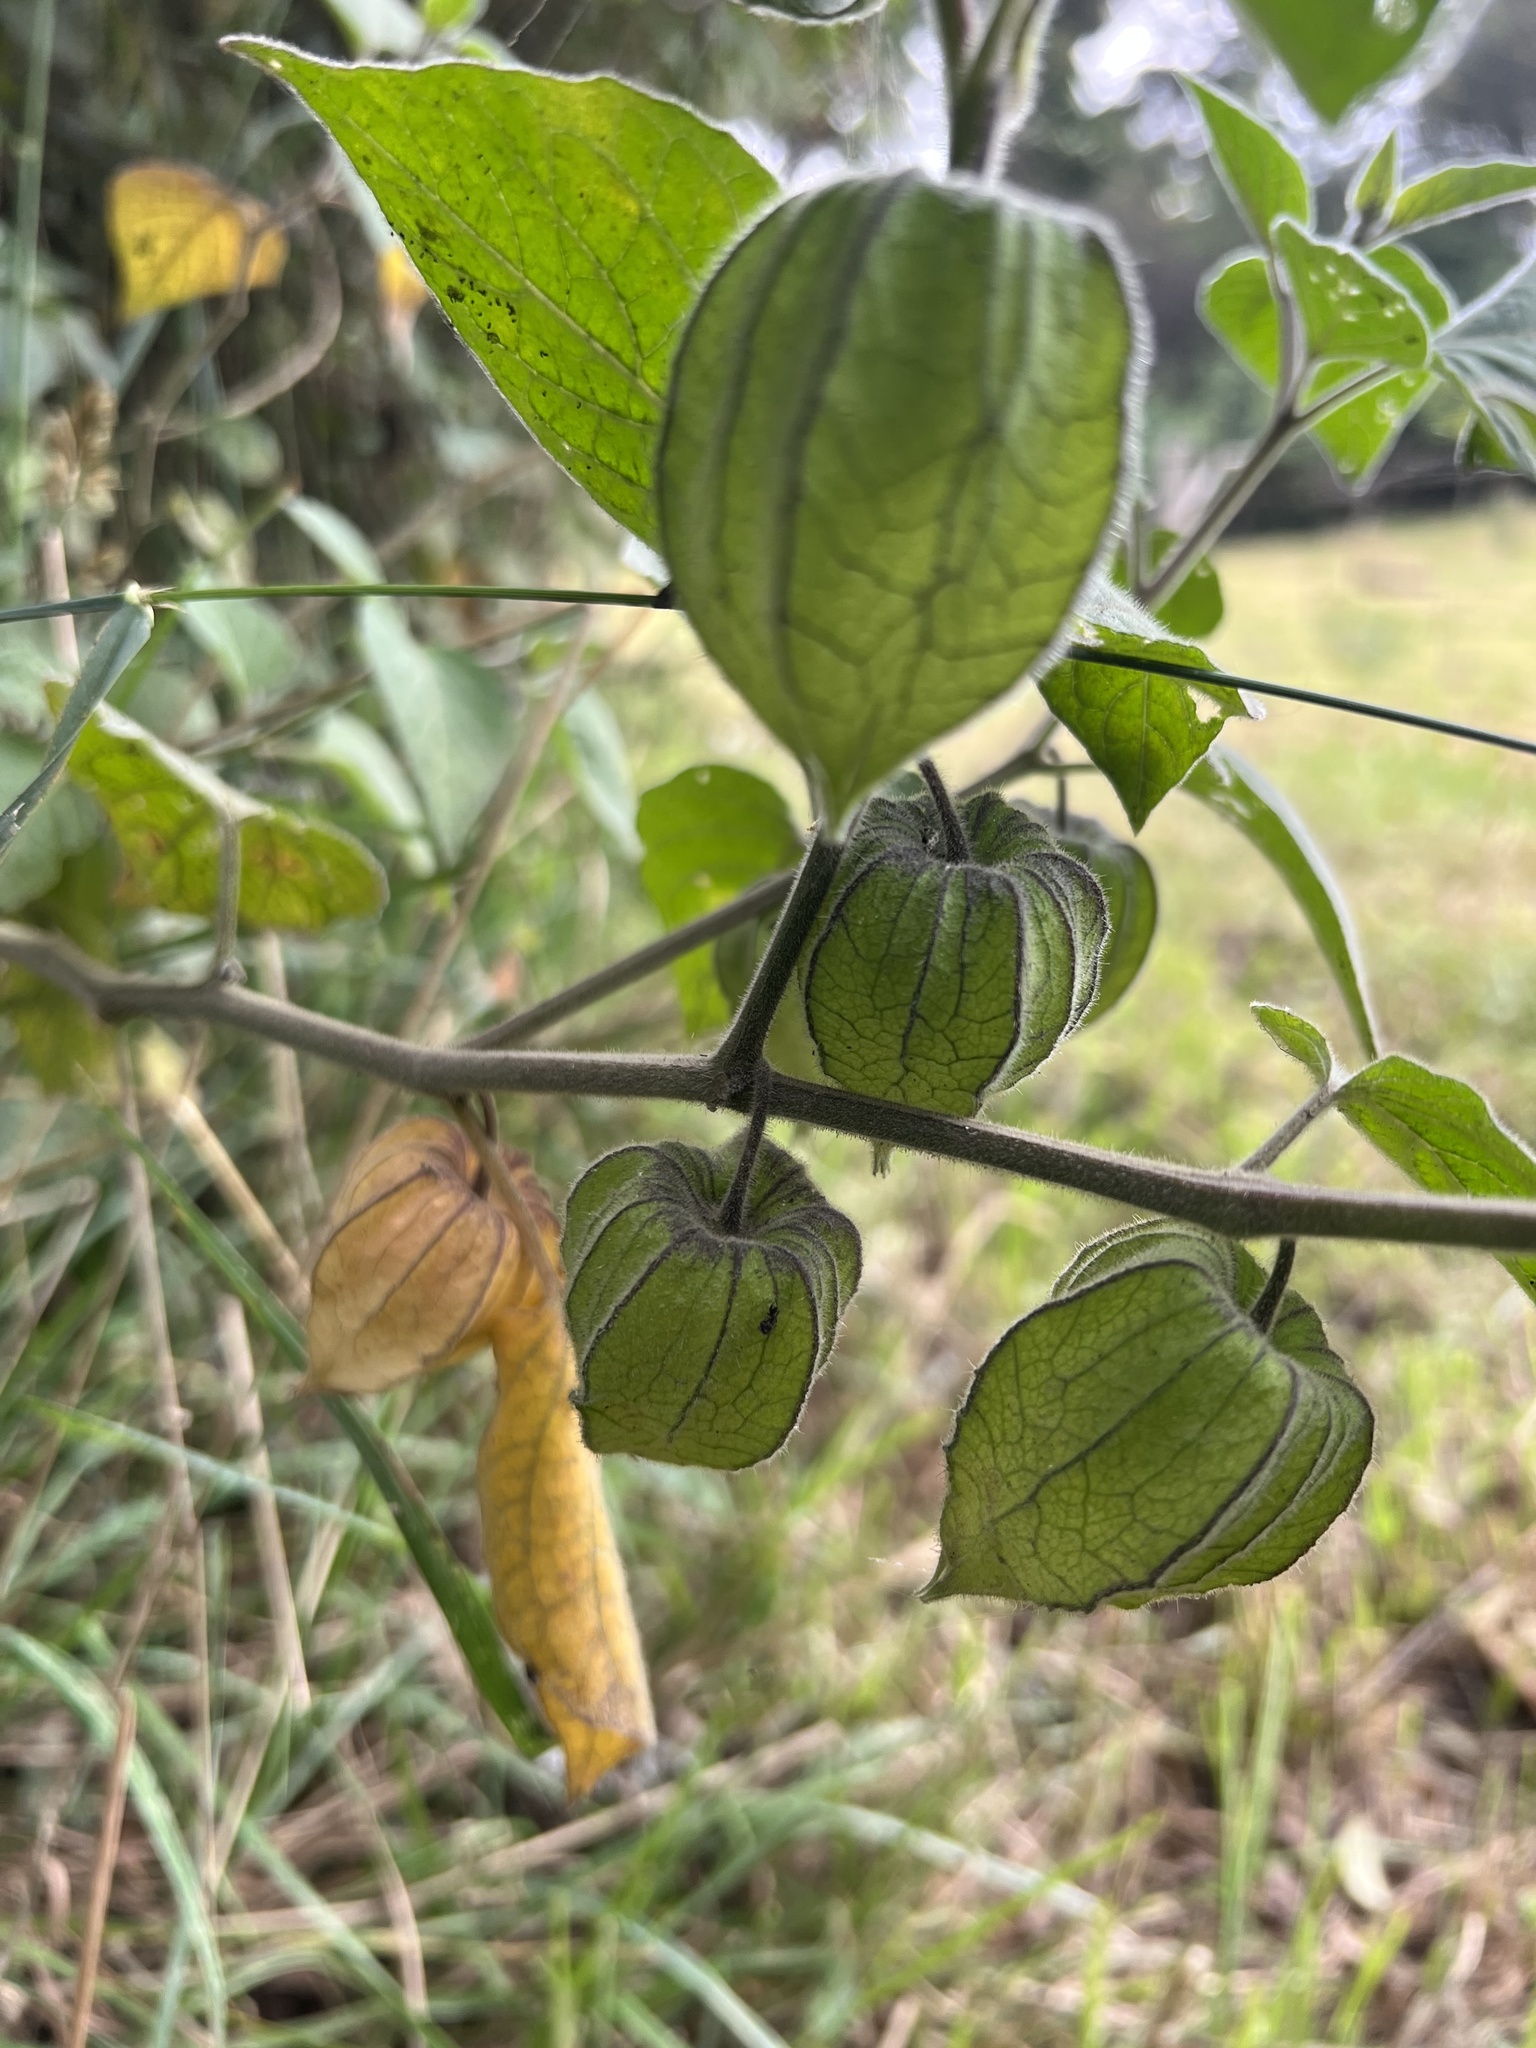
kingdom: Plantae
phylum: Tracheophyta
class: Magnoliopsida
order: Solanales
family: Solanaceae
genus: Physalis
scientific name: Physalis peruviana
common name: Cape-gooseberry
